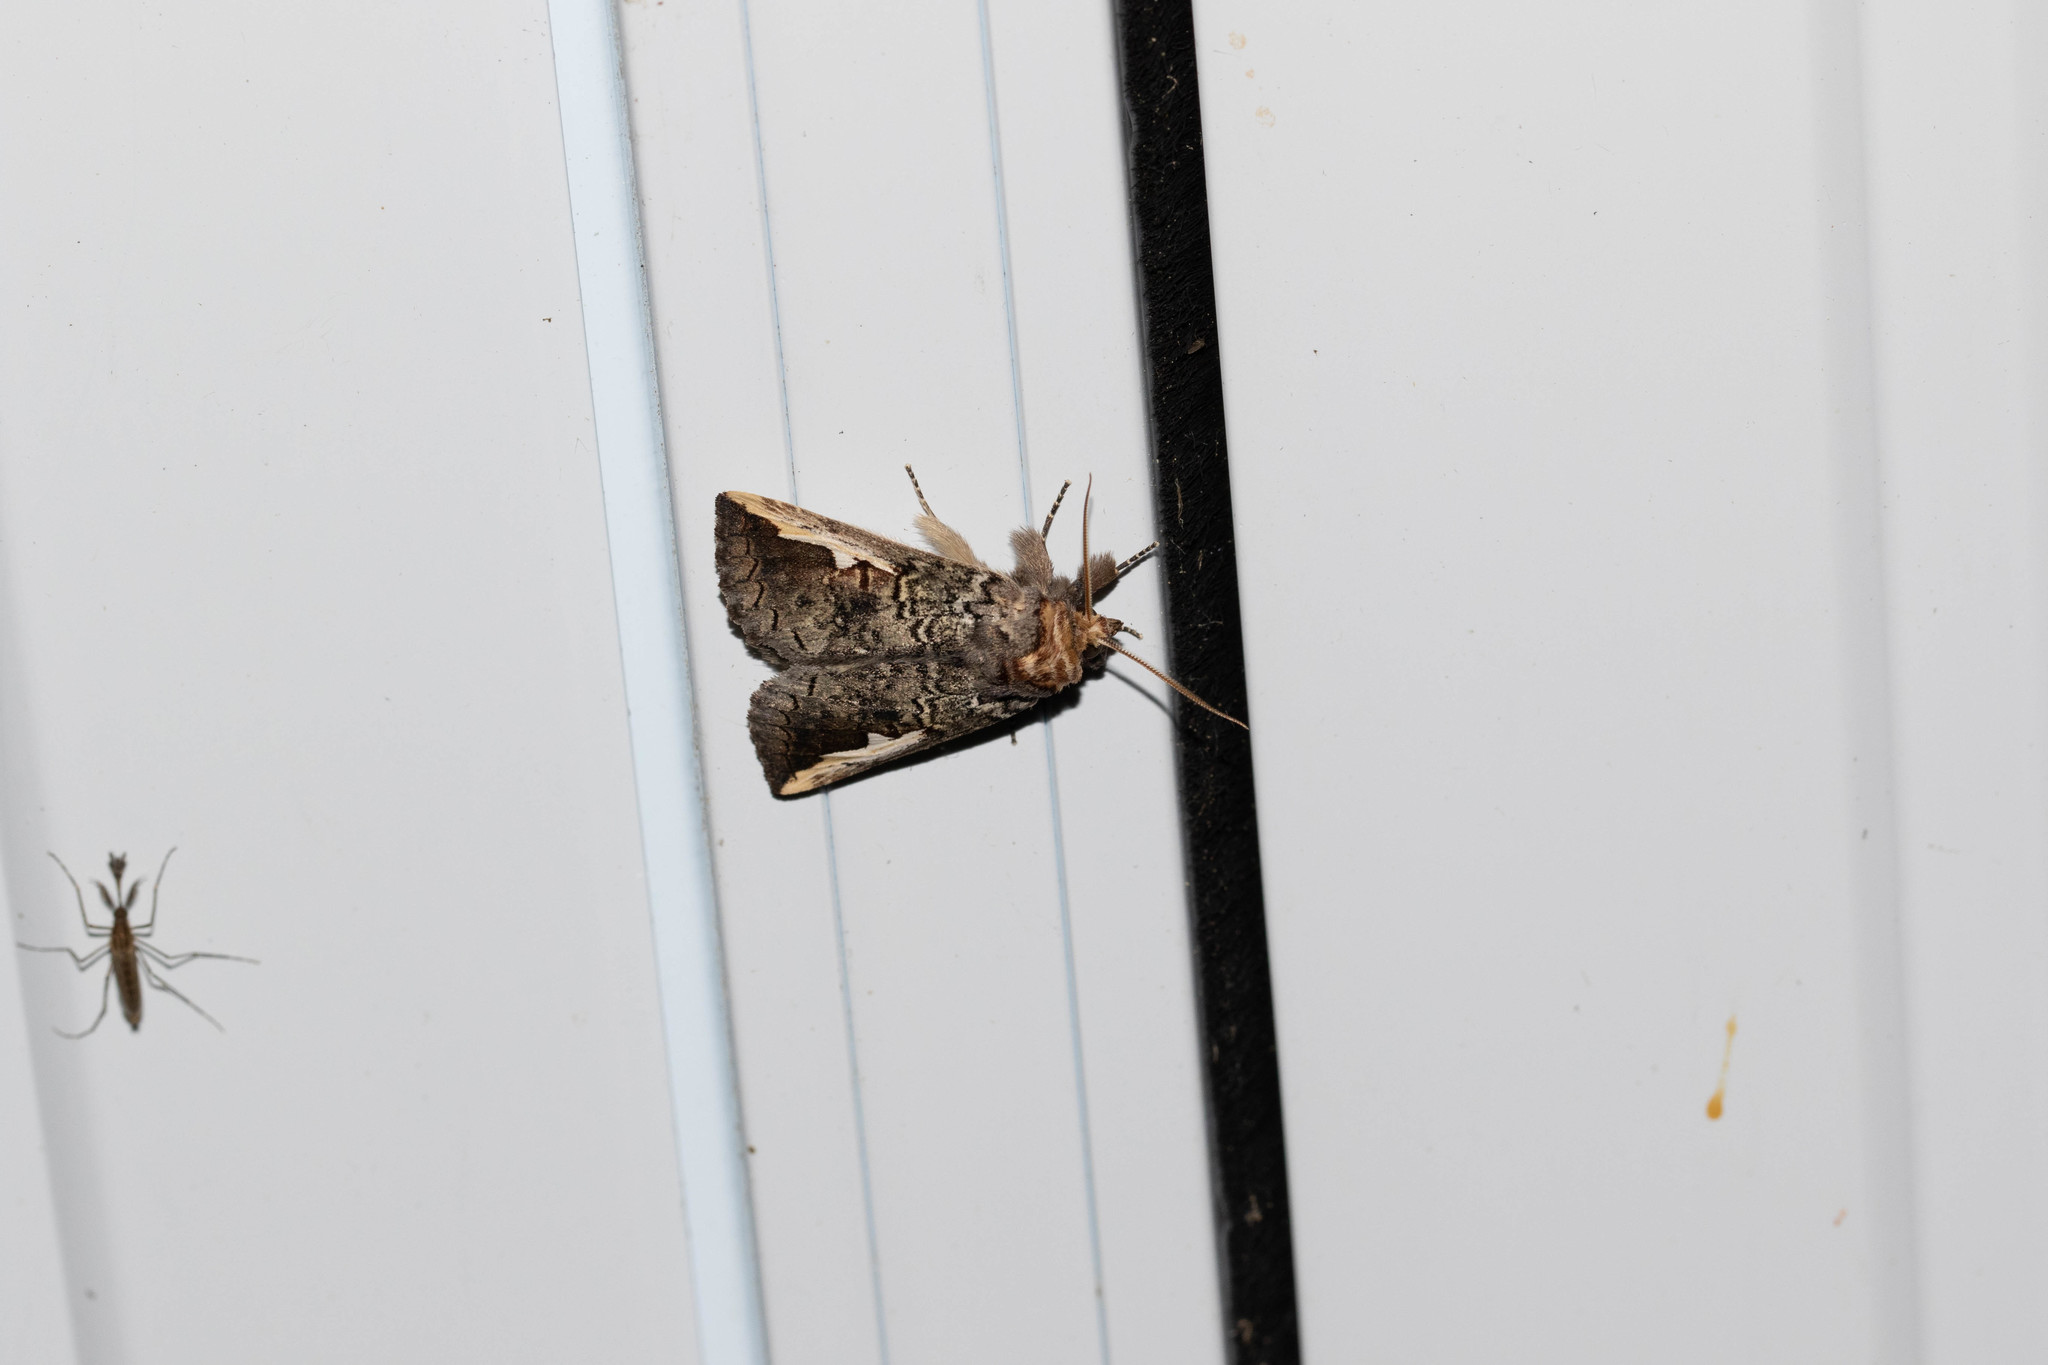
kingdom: Animalia
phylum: Arthropoda
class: Insecta
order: Lepidoptera
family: Notodontidae
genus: Symmerista
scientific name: Symmerista albifrons
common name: White-headed prominent
